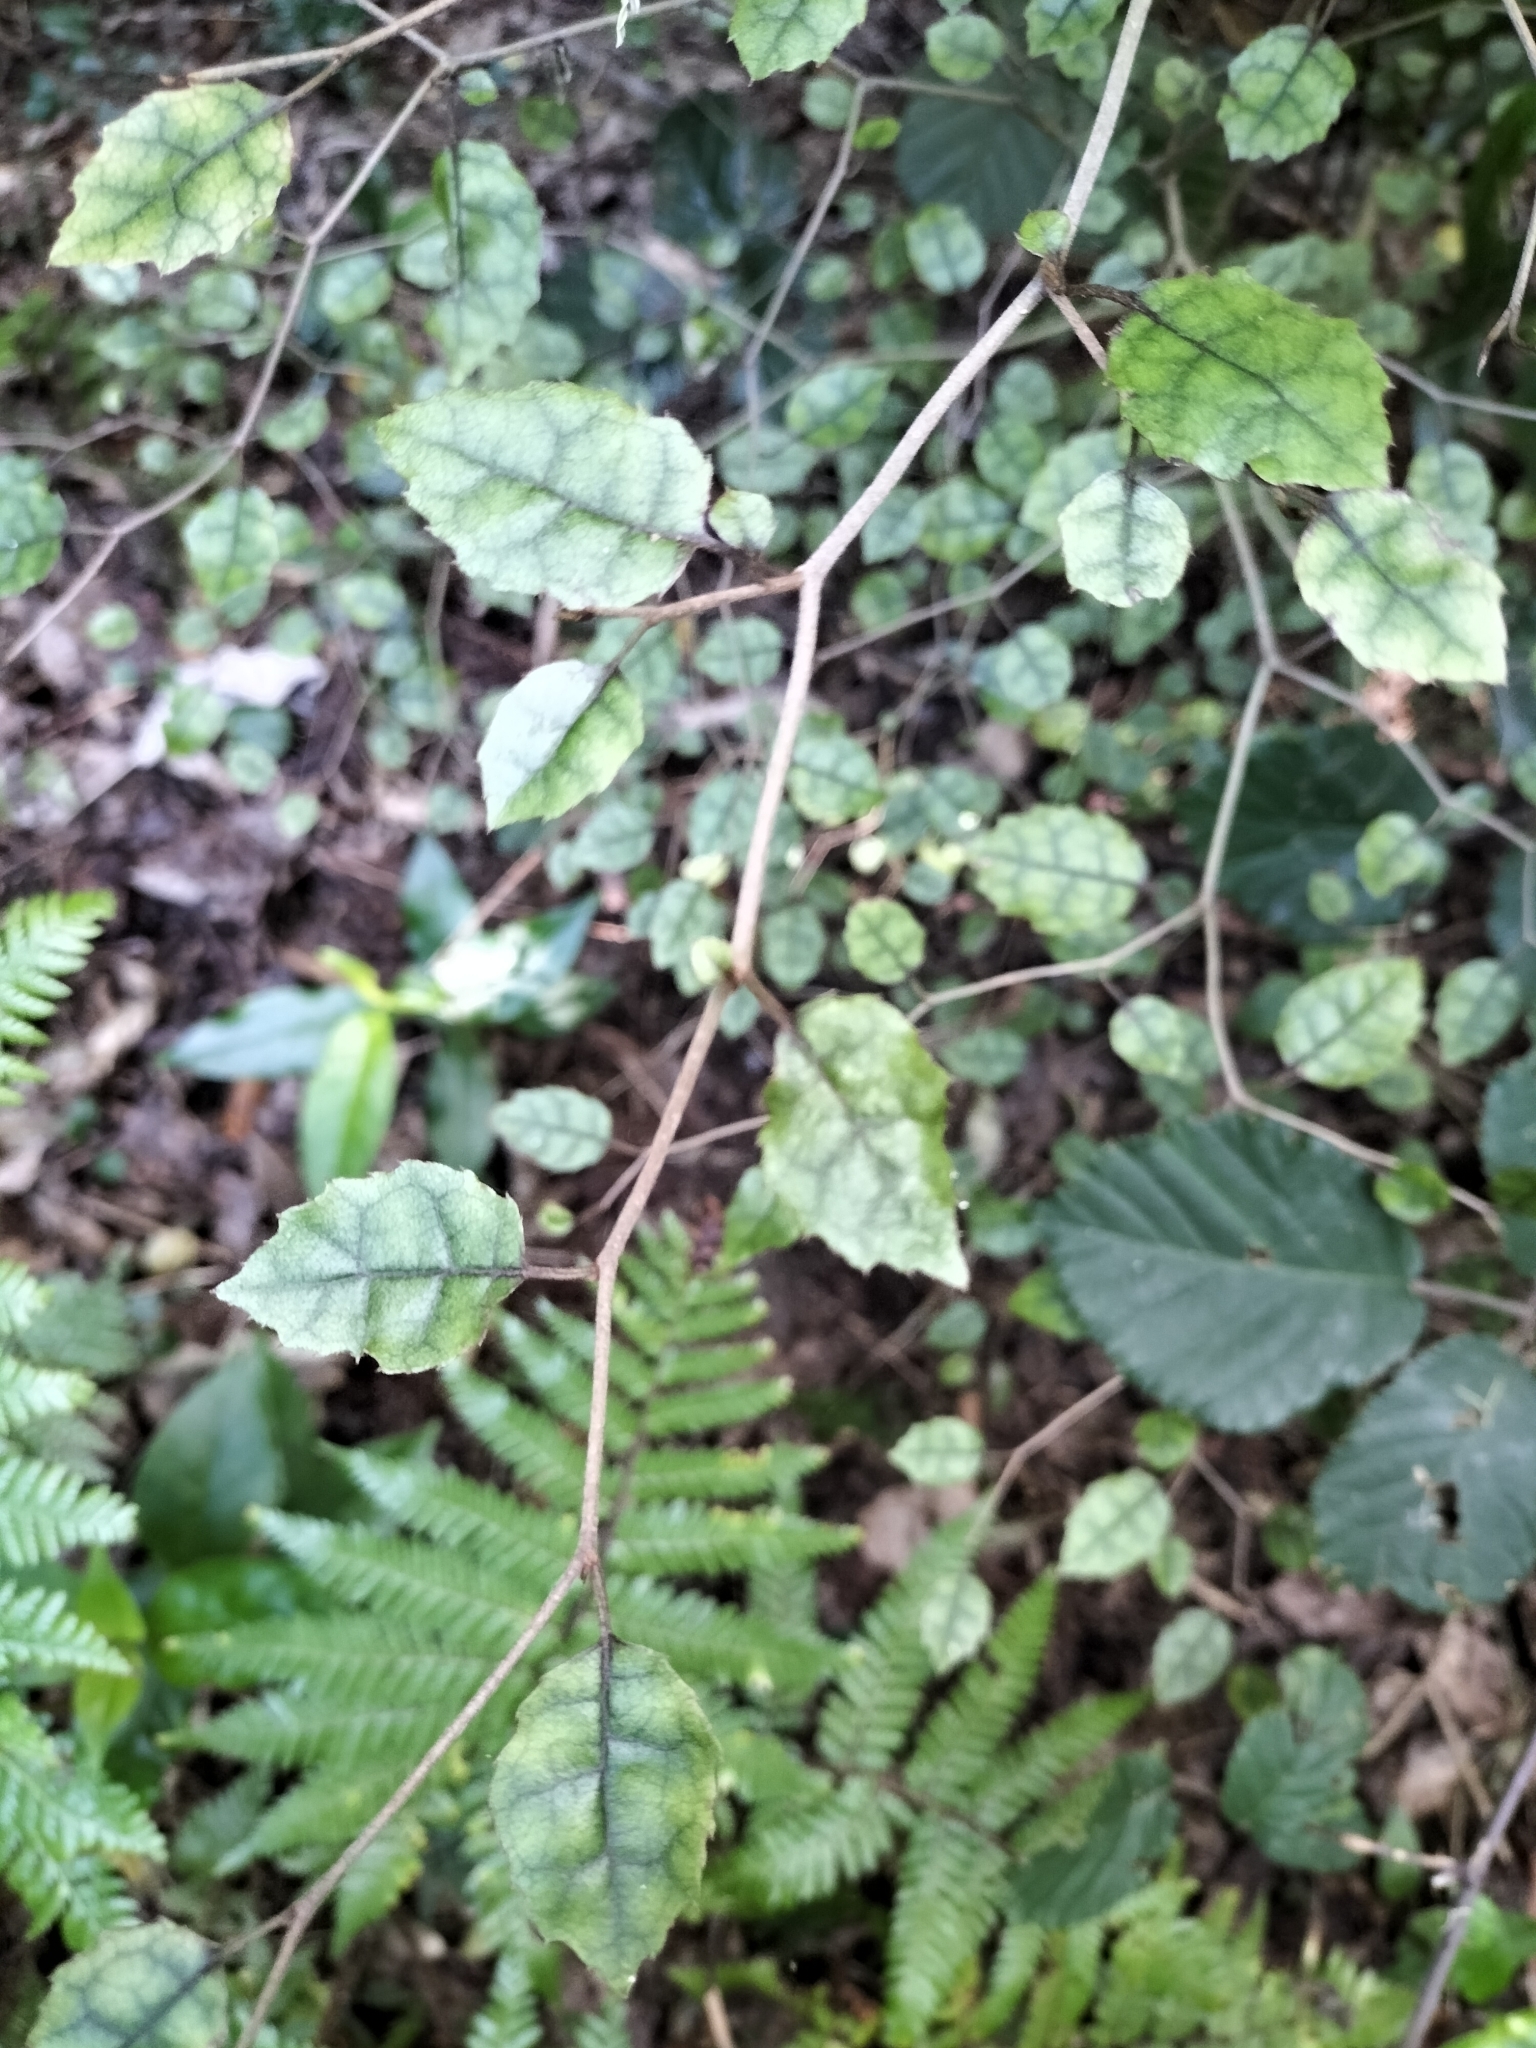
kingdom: Plantae
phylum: Tracheophyta
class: Magnoliopsida
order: Asterales
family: Rousseaceae
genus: Carpodetus
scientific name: Carpodetus serratus
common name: White mapau
